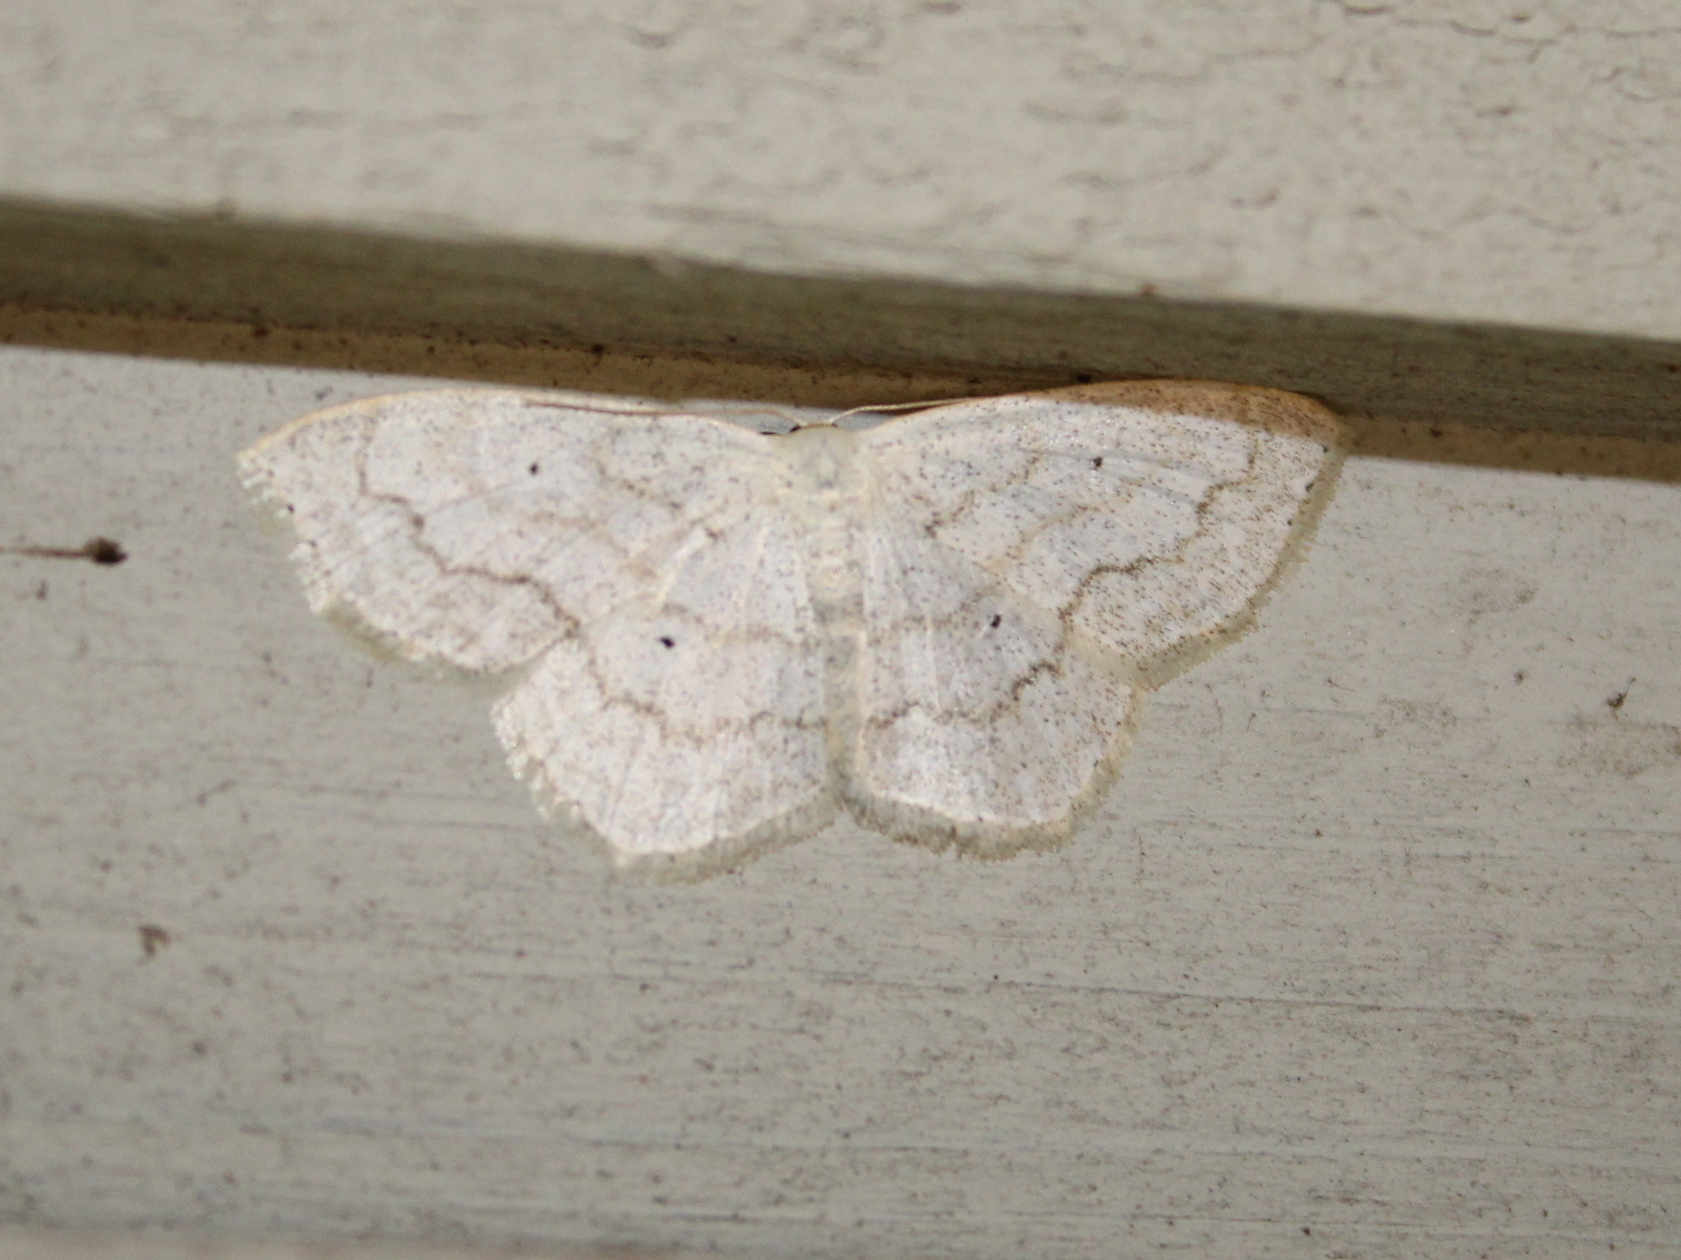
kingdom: Animalia
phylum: Arthropoda
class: Insecta
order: Lepidoptera
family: Geometridae
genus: Scopula
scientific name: Scopula limboundata
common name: Large lace border
